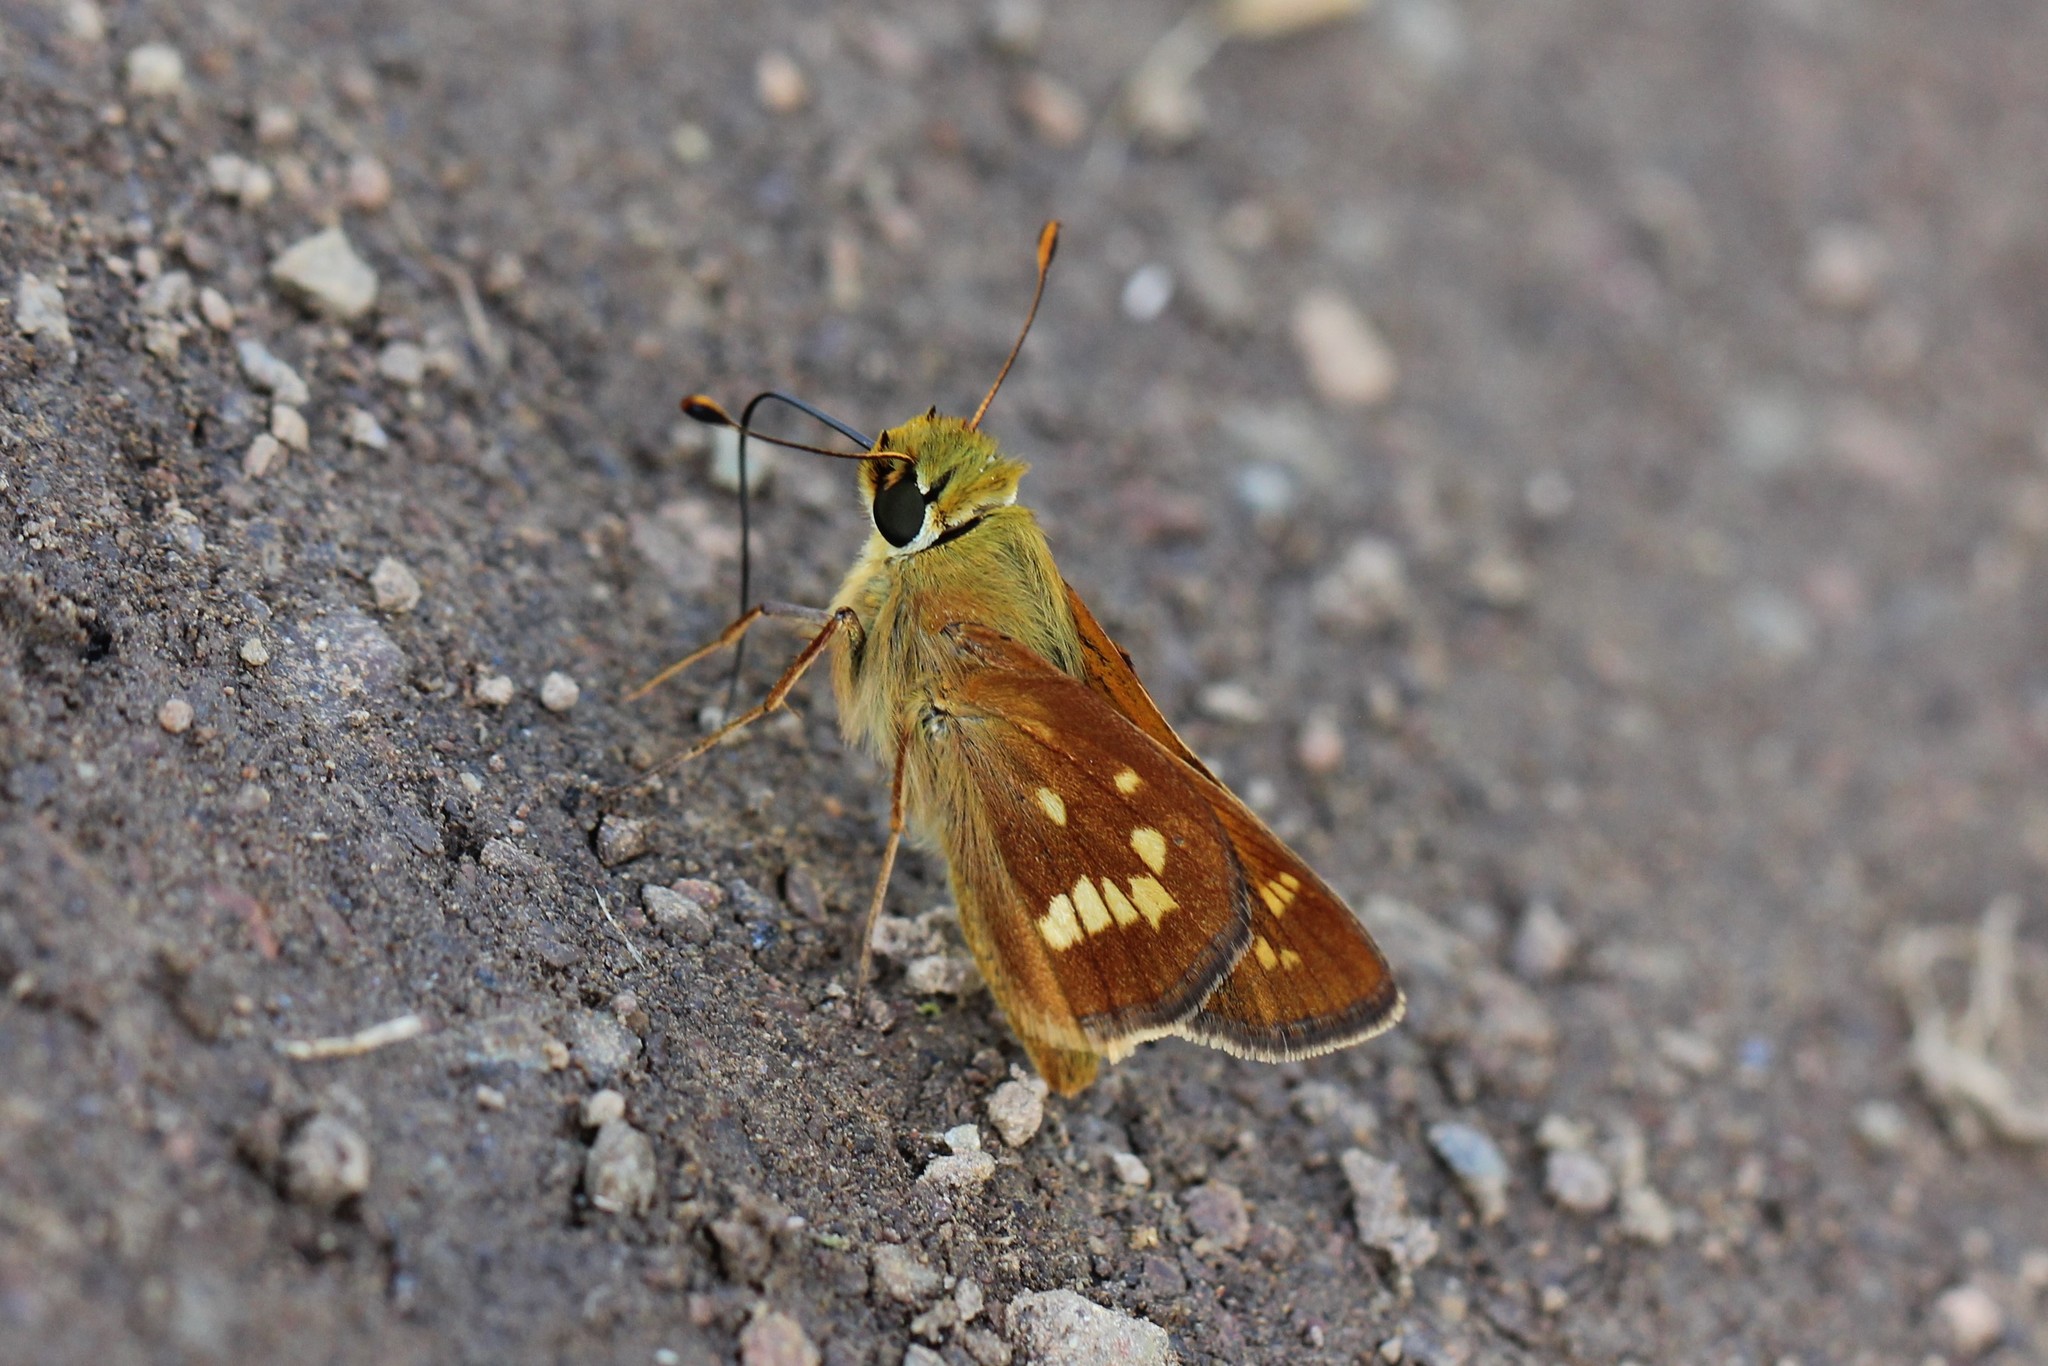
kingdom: Animalia
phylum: Arthropoda
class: Insecta
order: Lepidoptera
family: Hesperiidae
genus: Hesperia
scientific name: Hesperia leonardus
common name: Leonard's skipper
